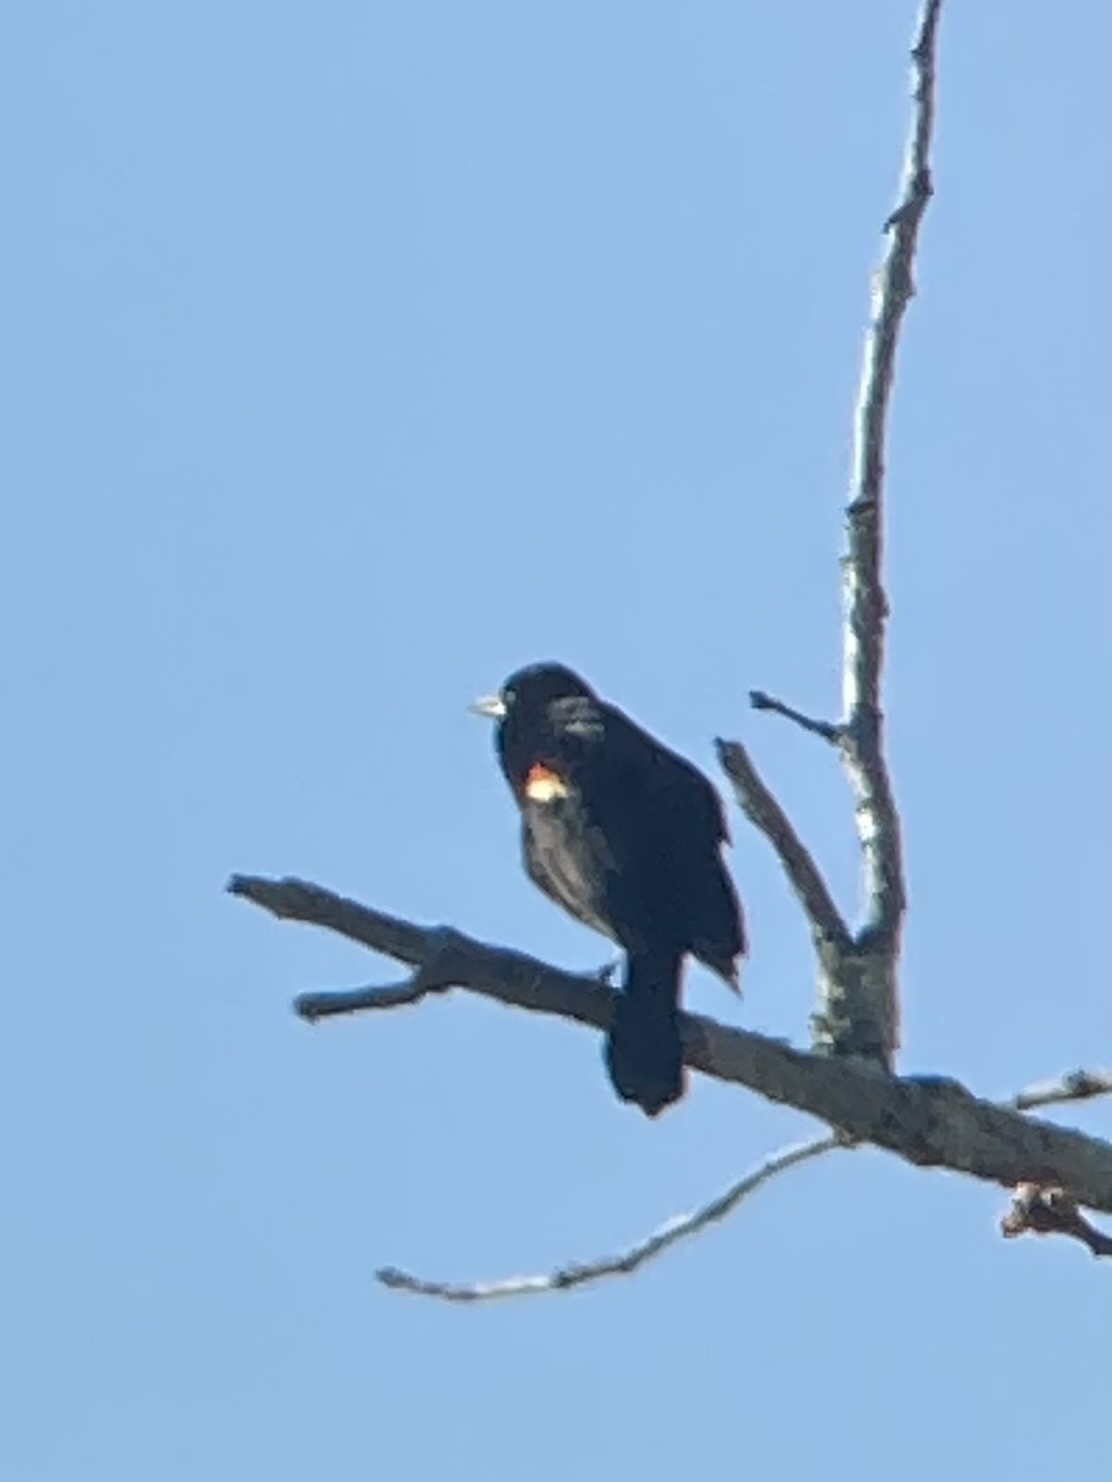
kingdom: Animalia
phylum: Chordata
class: Aves
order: Passeriformes
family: Icteridae
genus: Agelaius
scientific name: Agelaius phoeniceus
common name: Red-winged blackbird
